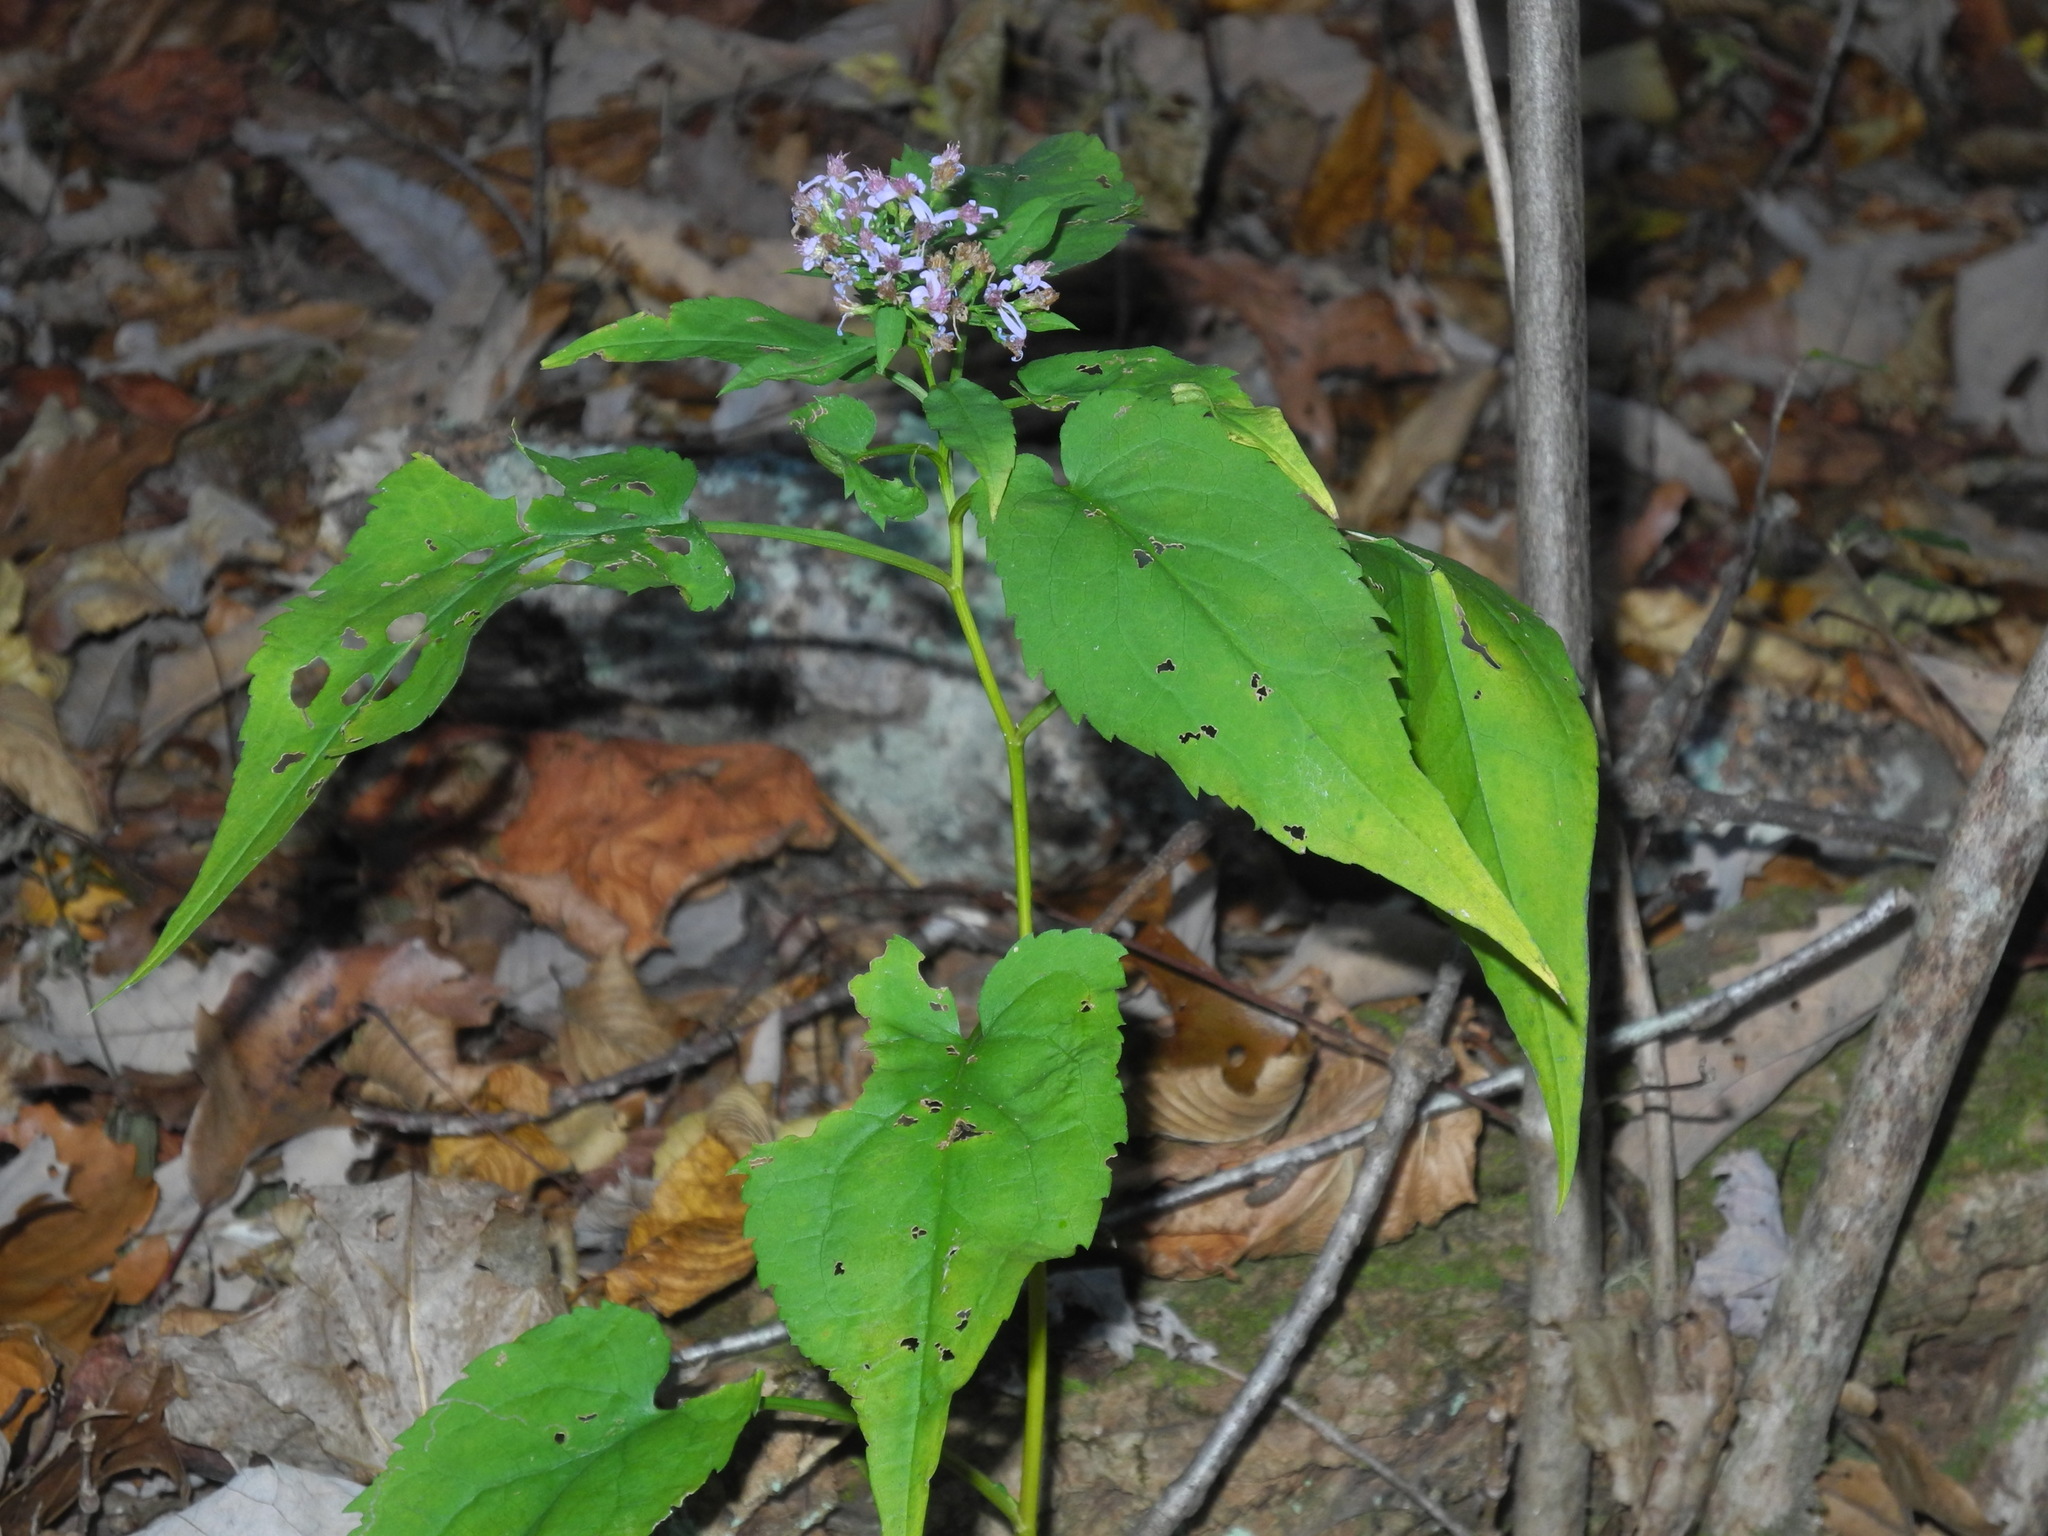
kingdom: Plantae
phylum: Tracheophyta
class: Magnoliopsida
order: Asterales
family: Asteraceae
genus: Symphyotrichum
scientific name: Symphyotrichum cordifolium
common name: Beeweed
